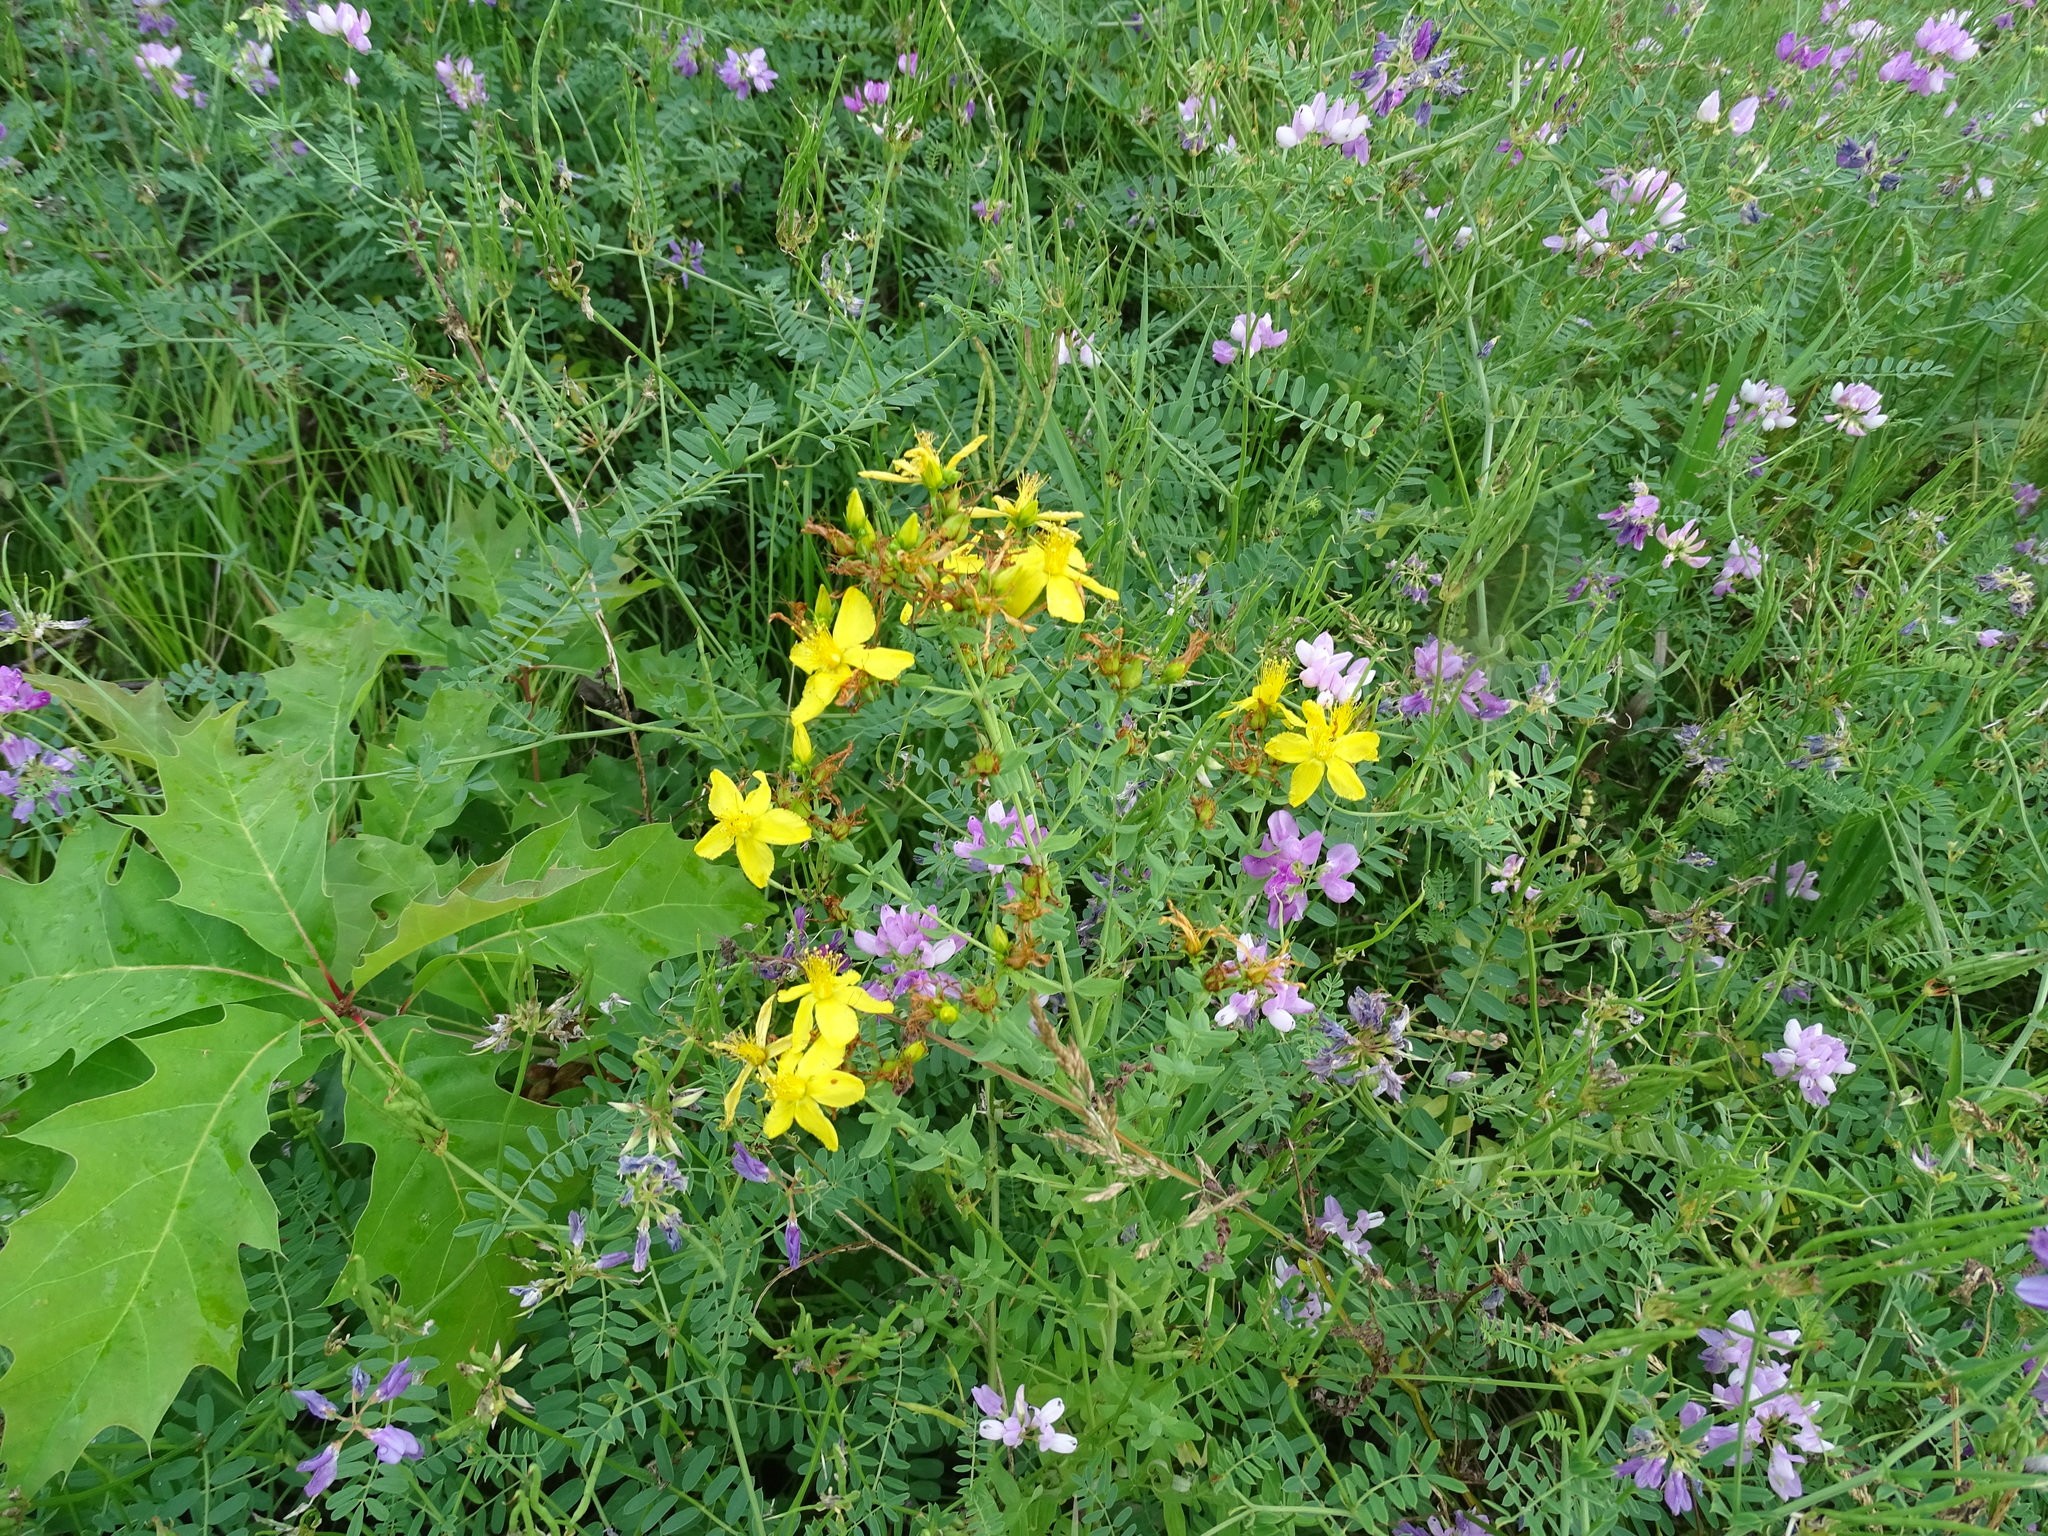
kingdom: Plantae
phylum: Tracheophyta
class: Magnoliopsida
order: Malpighiales
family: Hypericaceae
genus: Hypericum
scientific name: Hypericum perforatum
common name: Common st. johnswort
